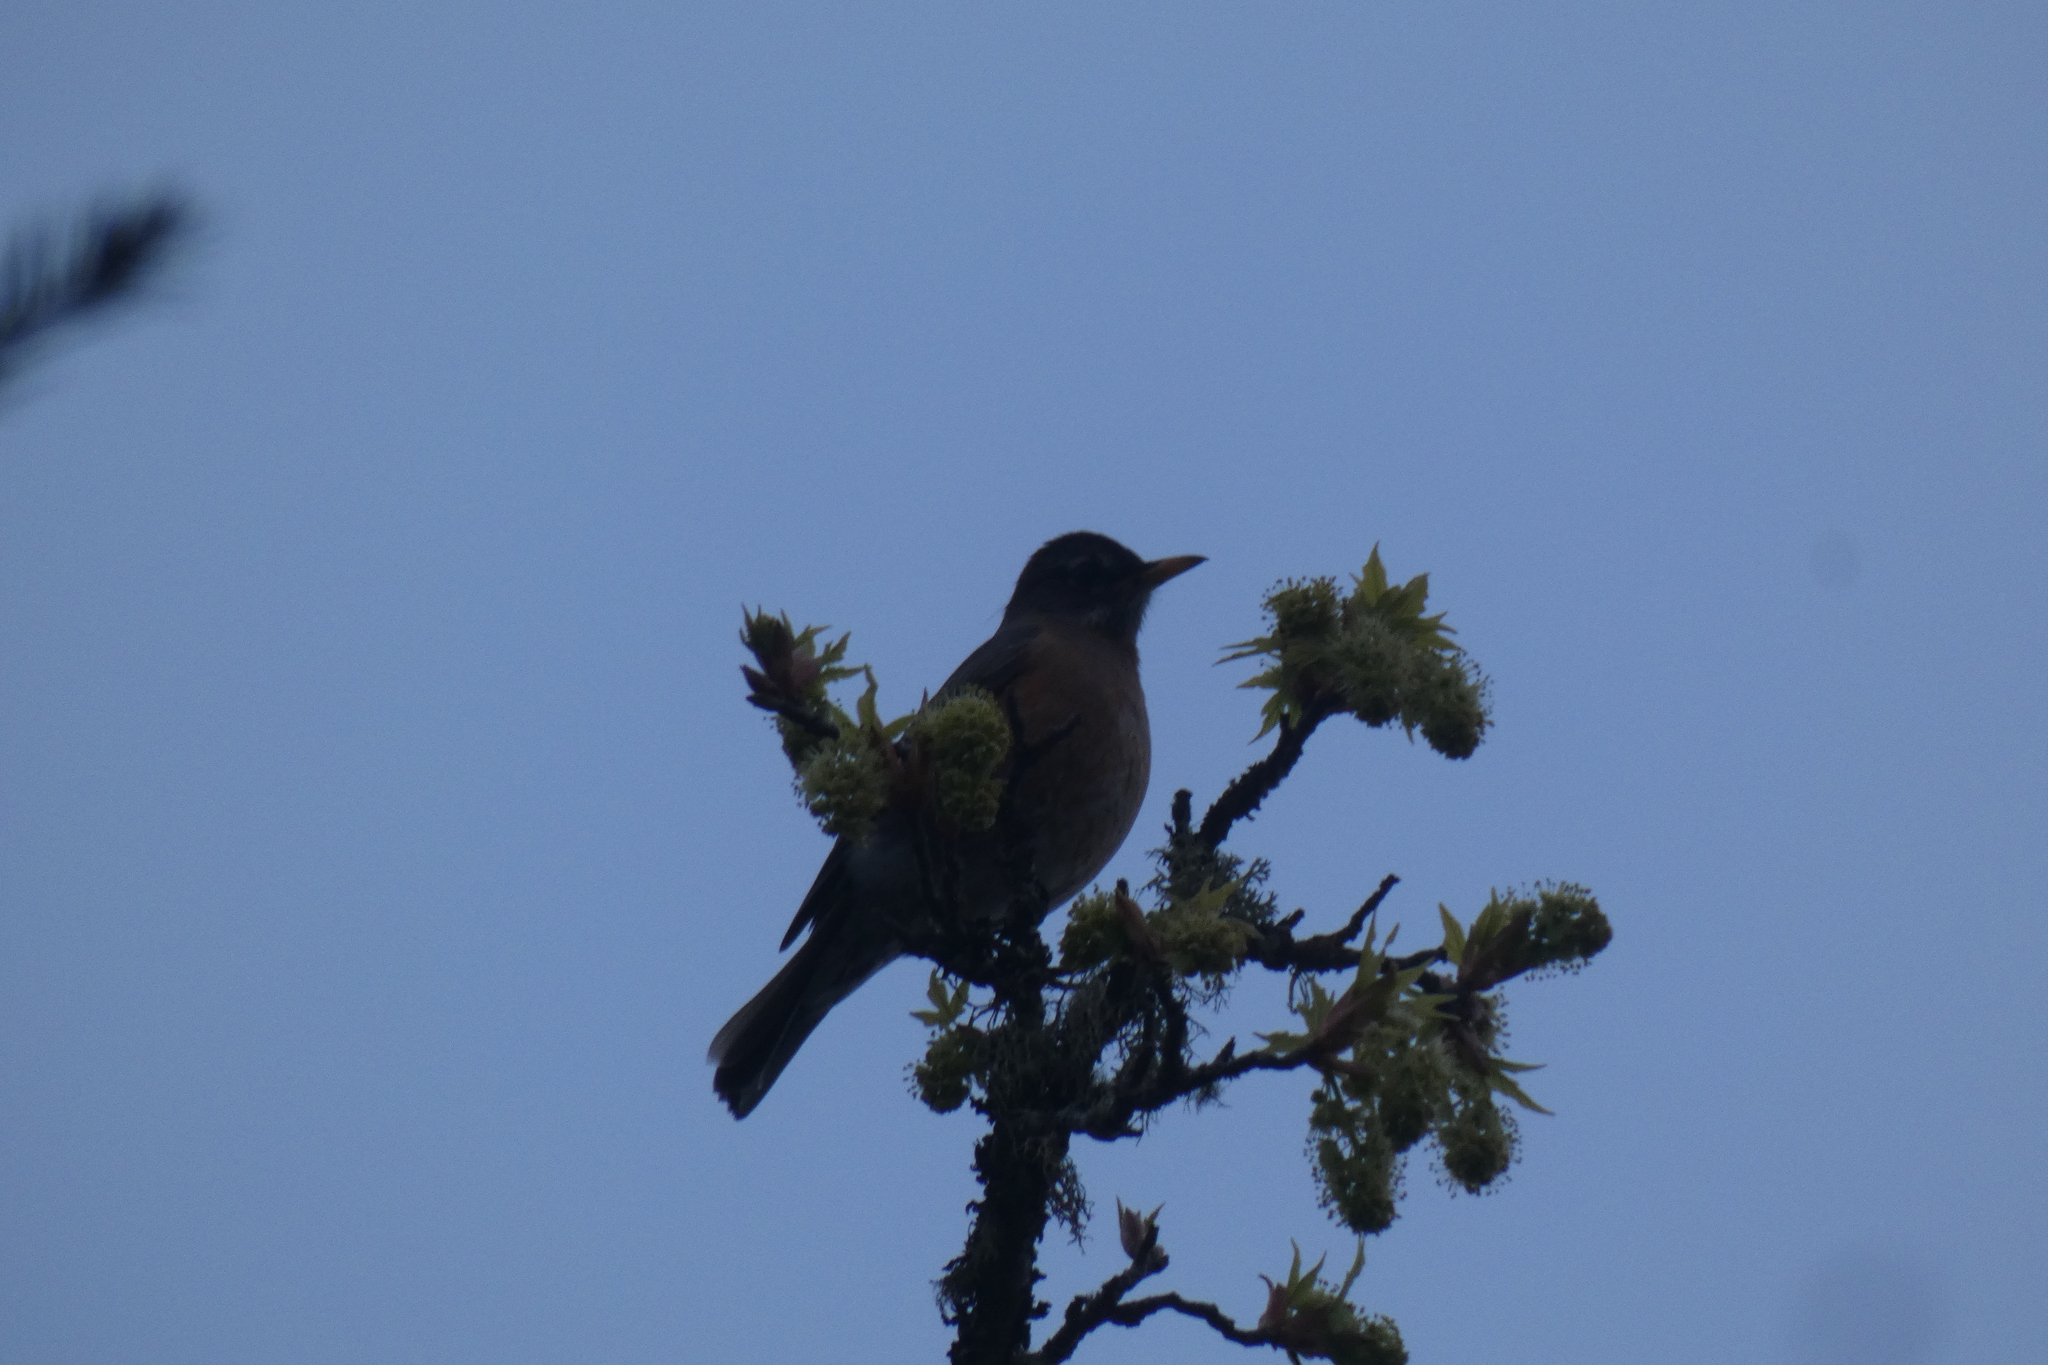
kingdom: Animalia
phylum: Chordata
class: Aves
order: Passeriformes
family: Turdidae
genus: Turdus
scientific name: Turdus migratorius
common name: American robin
